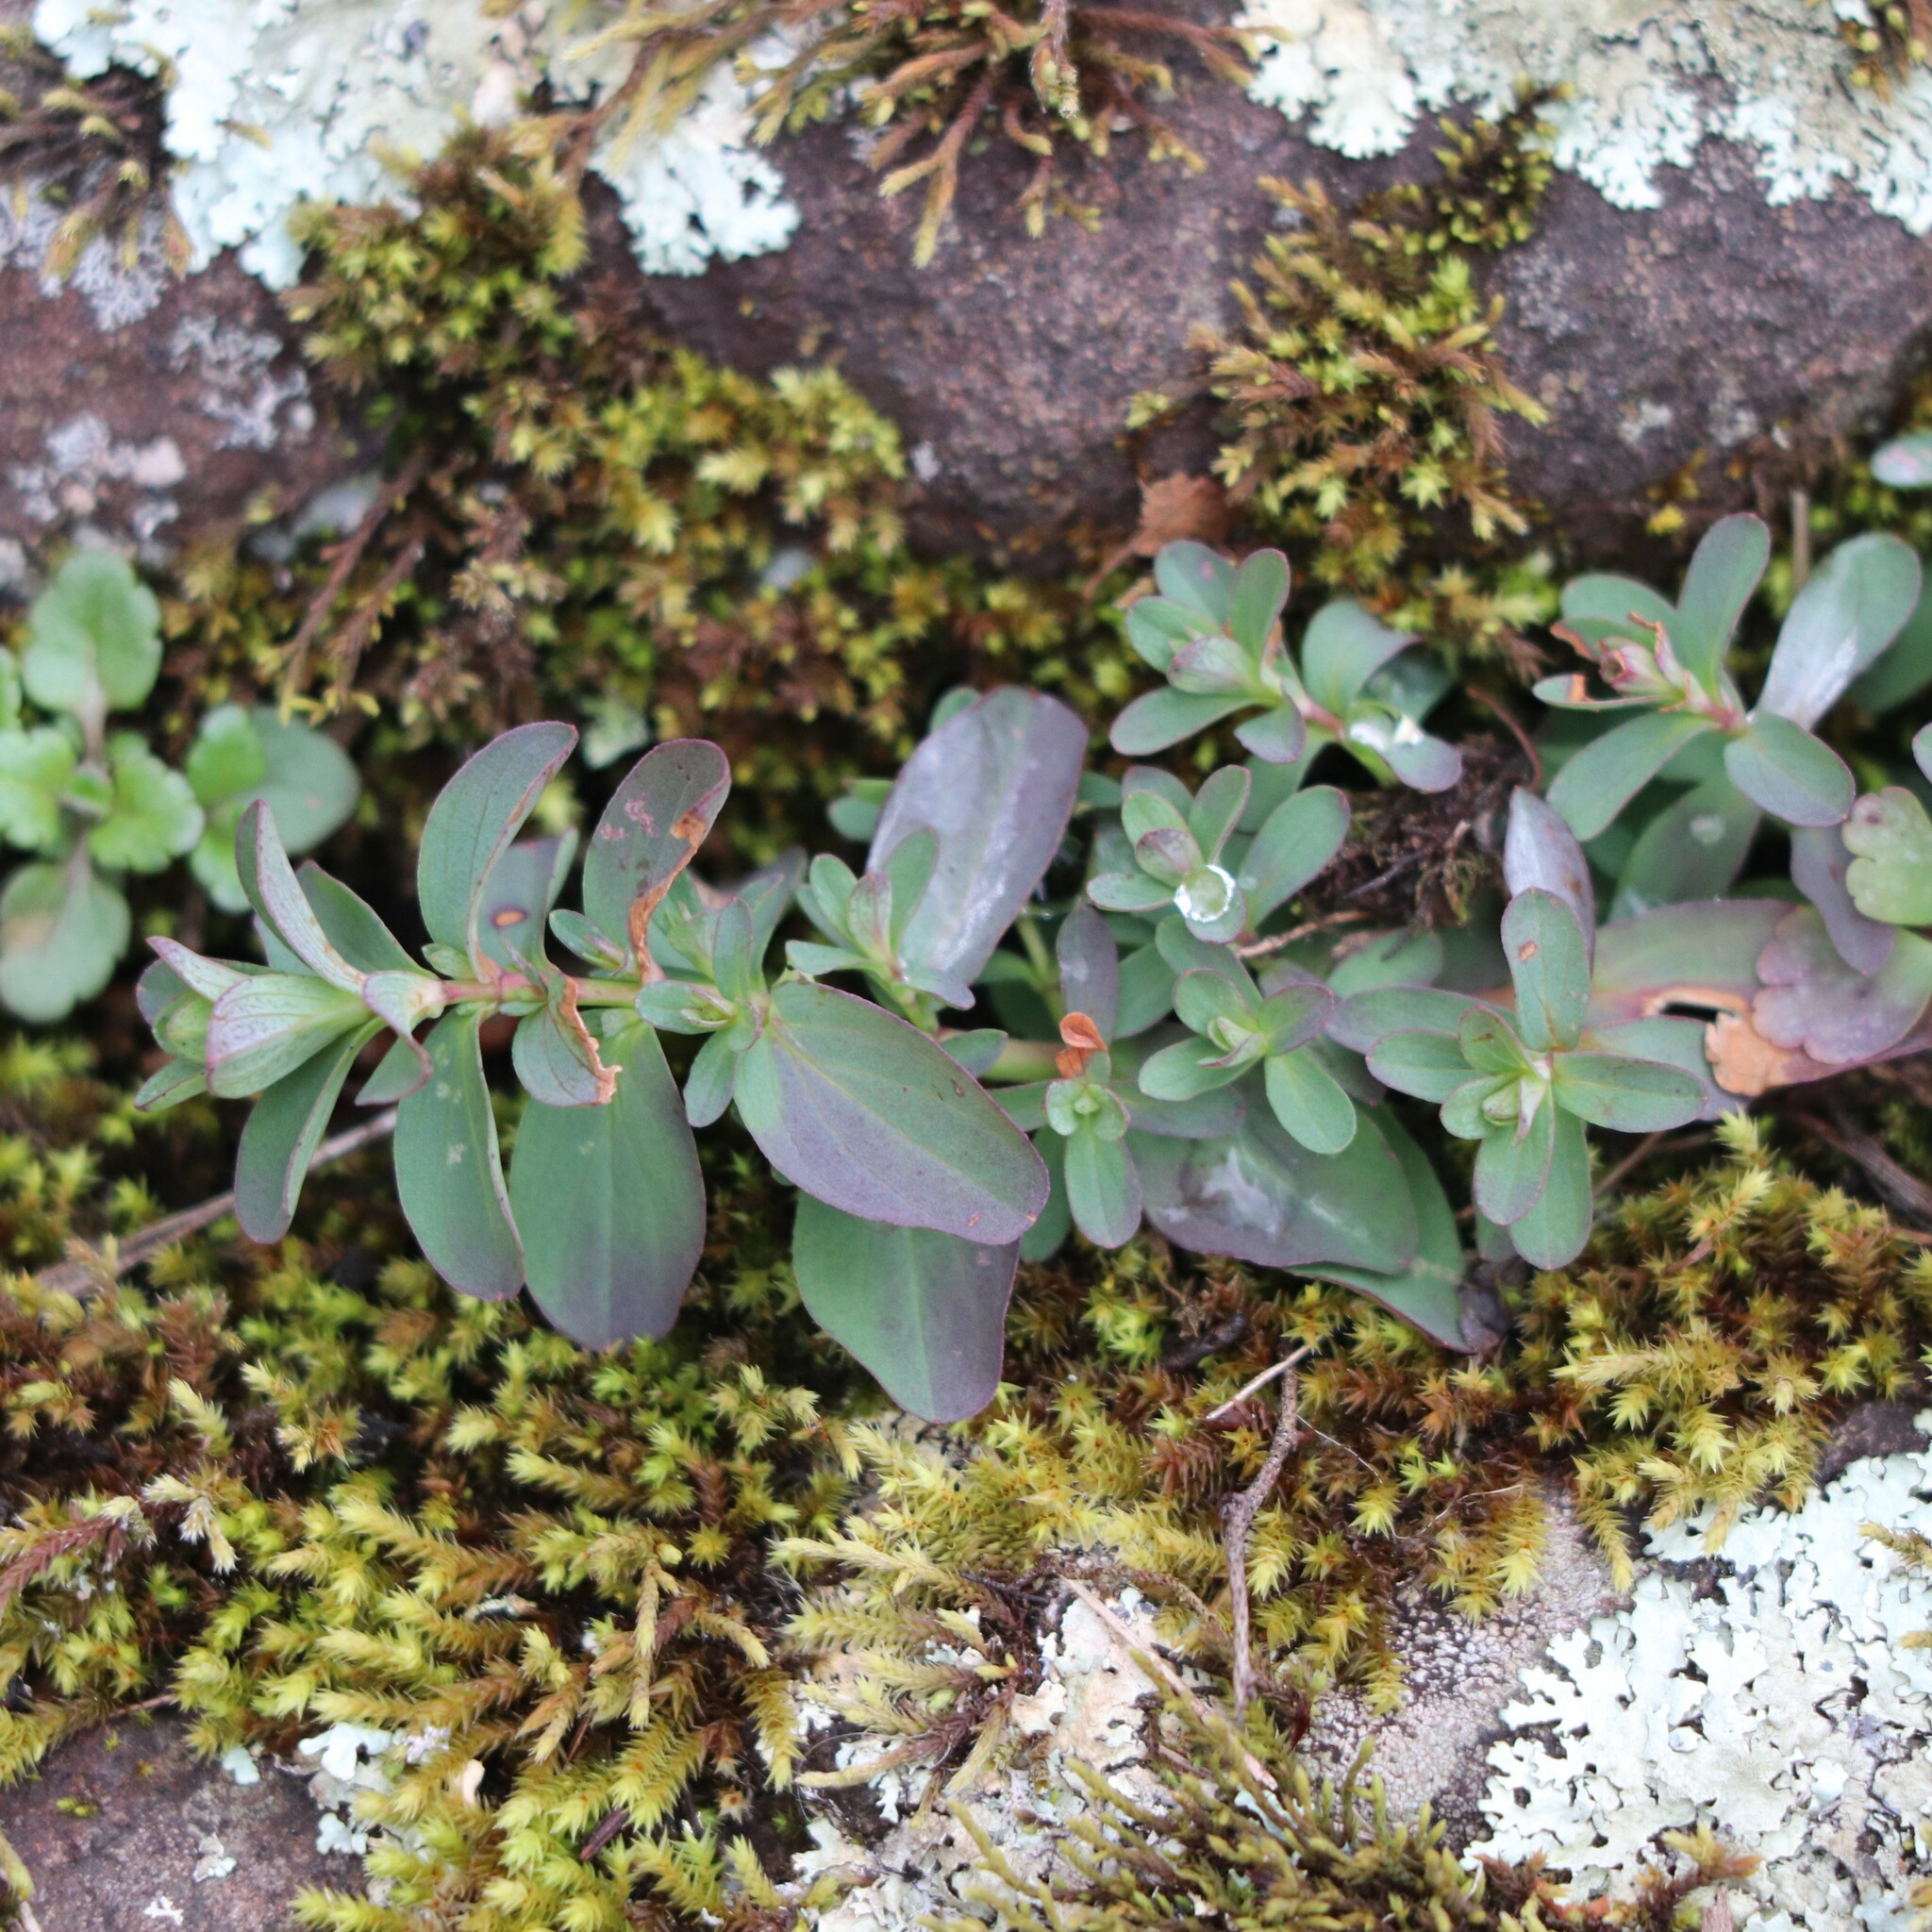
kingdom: Plantae
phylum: Tracheophyta
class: Magnoliopsida
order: Malpighiales
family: Hypericaceae
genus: Hypericum
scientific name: Hypericum perforatum
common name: Common st. johnswort
